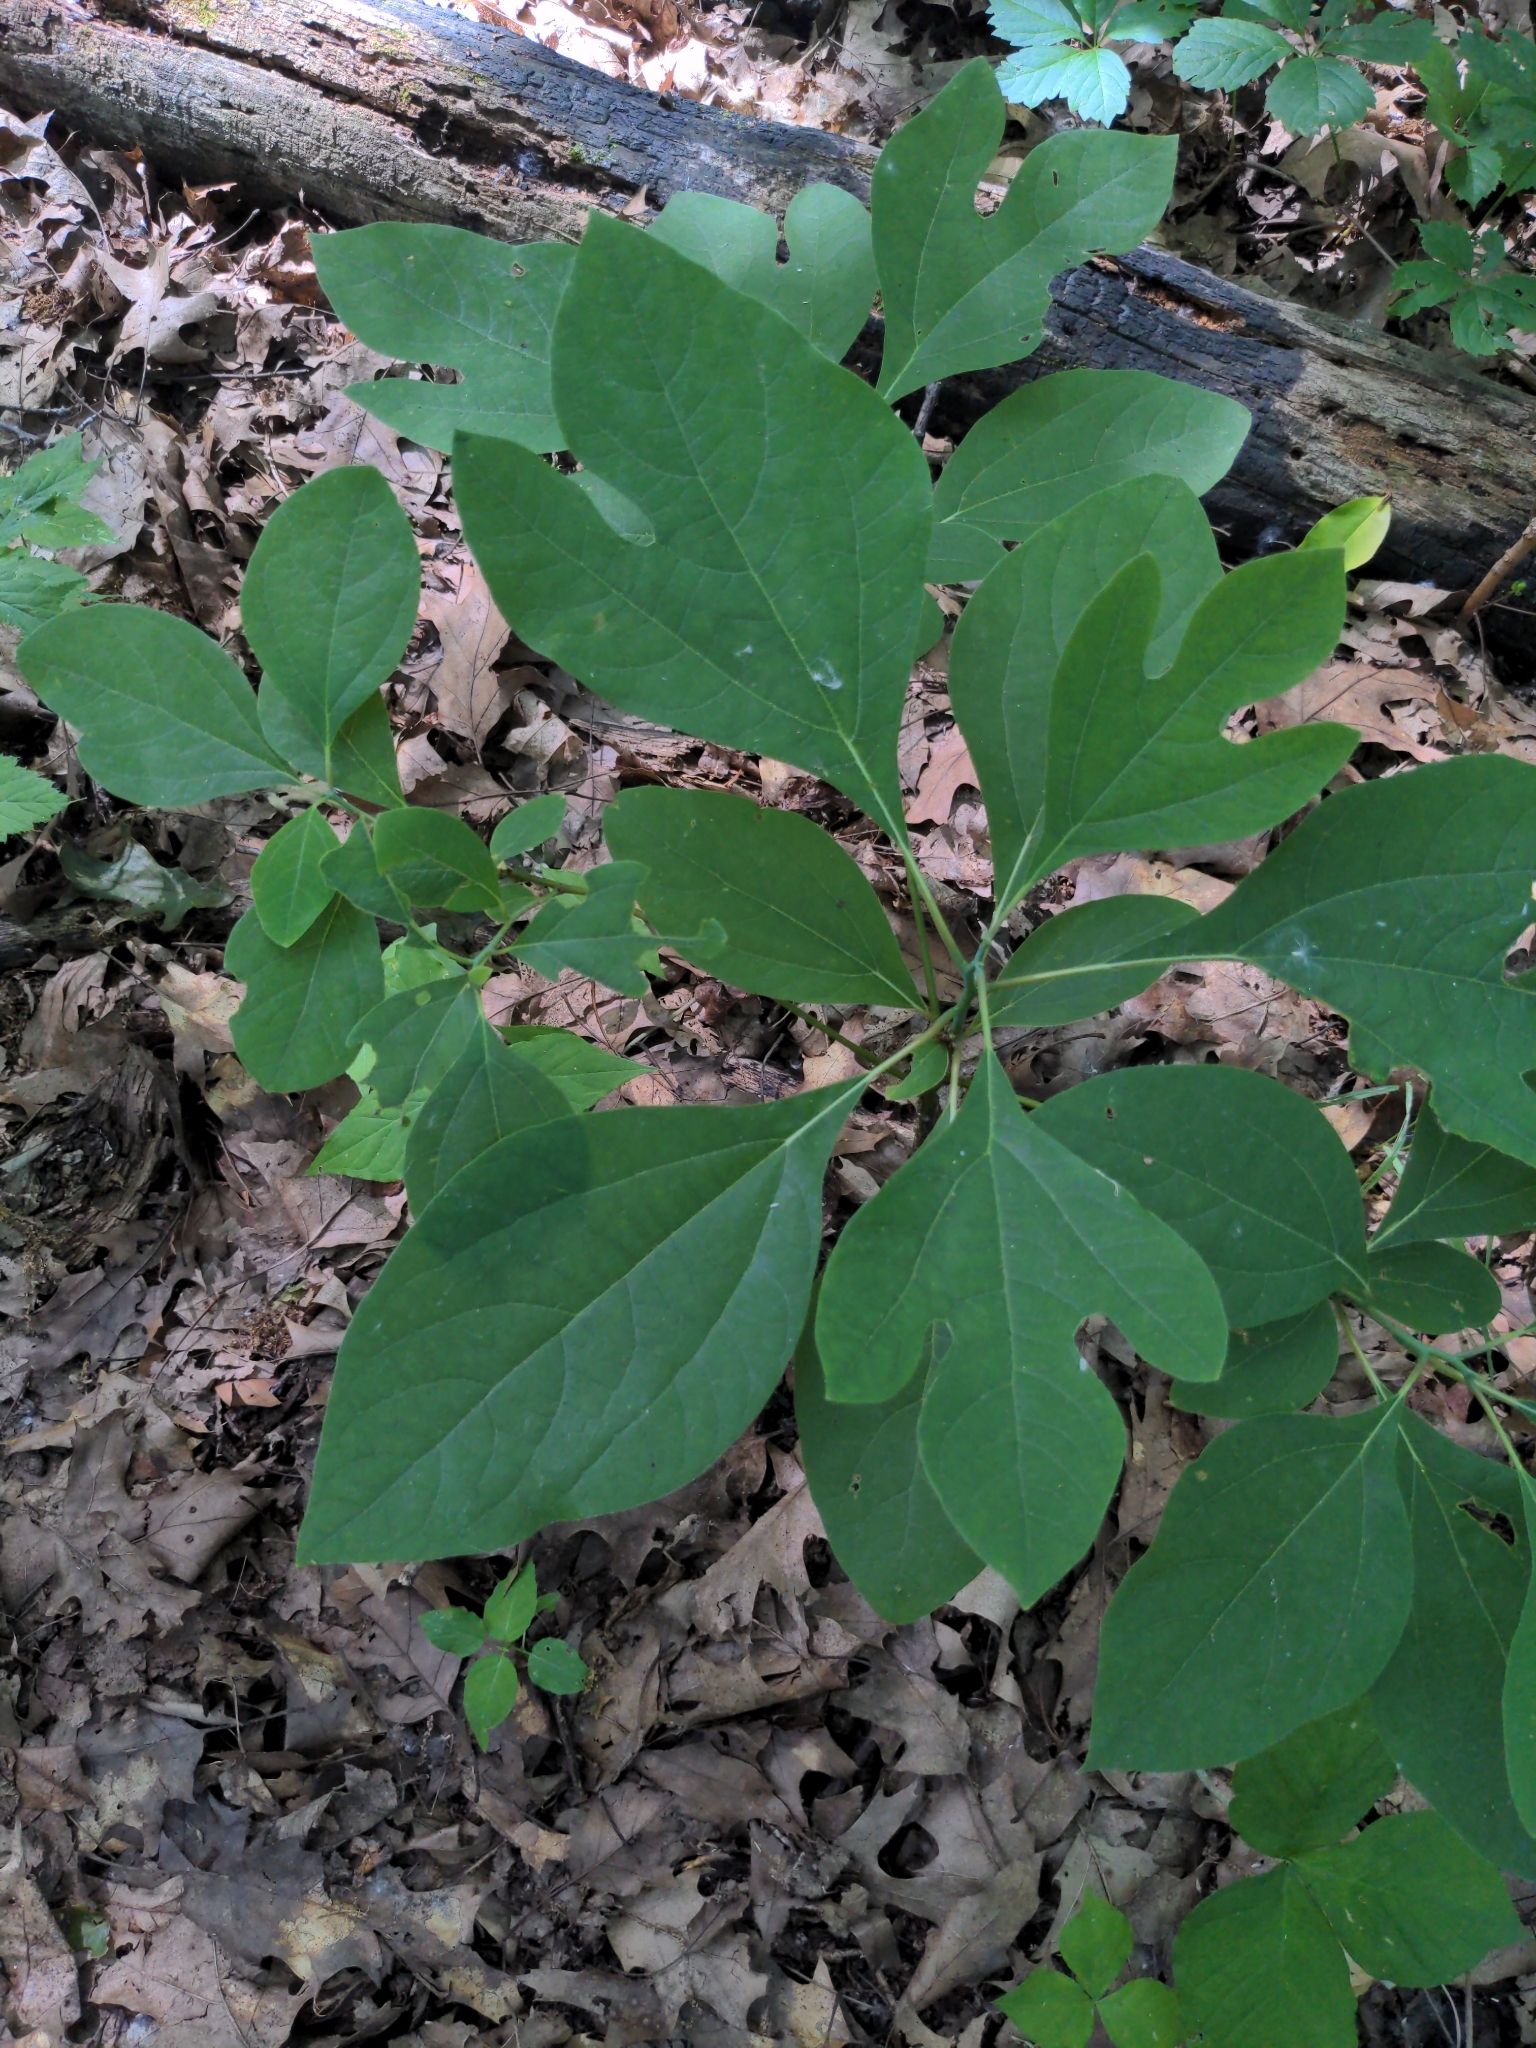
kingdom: Plantae
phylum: Tracheophyta
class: Magnoliopsida
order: Laurales
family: Lauraceae
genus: Sassafras
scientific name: Sassafras albidum
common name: Sassafras
